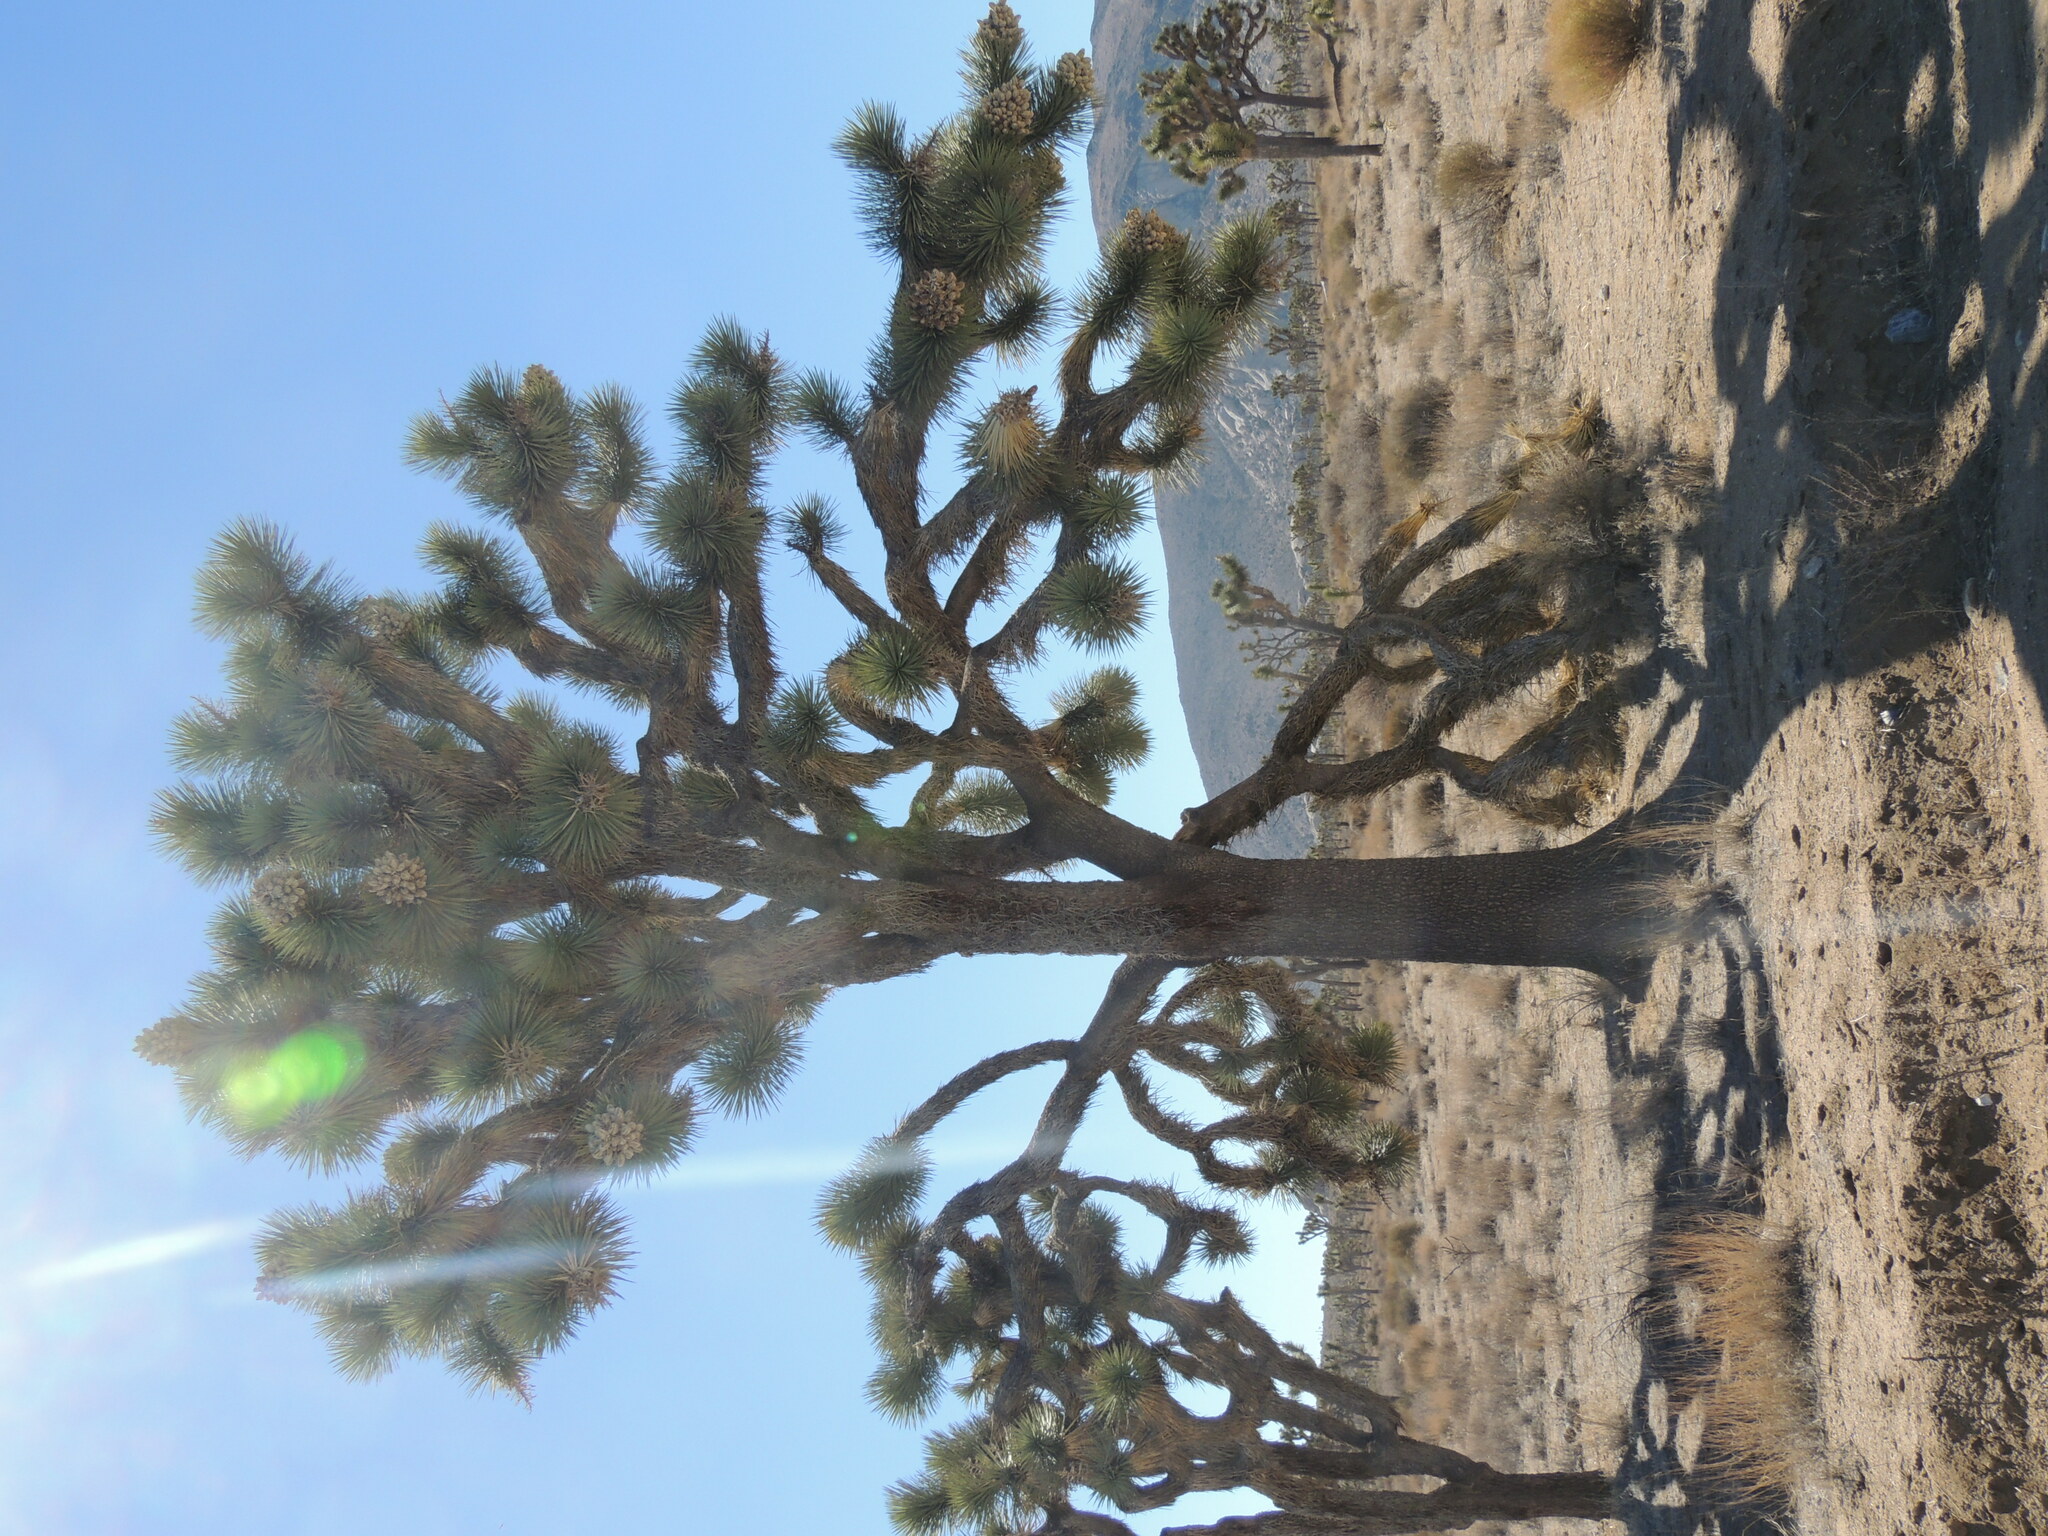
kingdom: Plantae
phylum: Tracheophyta
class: Liliopsida
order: Asparagales
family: Asparagaceae
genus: Yucca
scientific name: Yucca brevifolia
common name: Joshua tree
